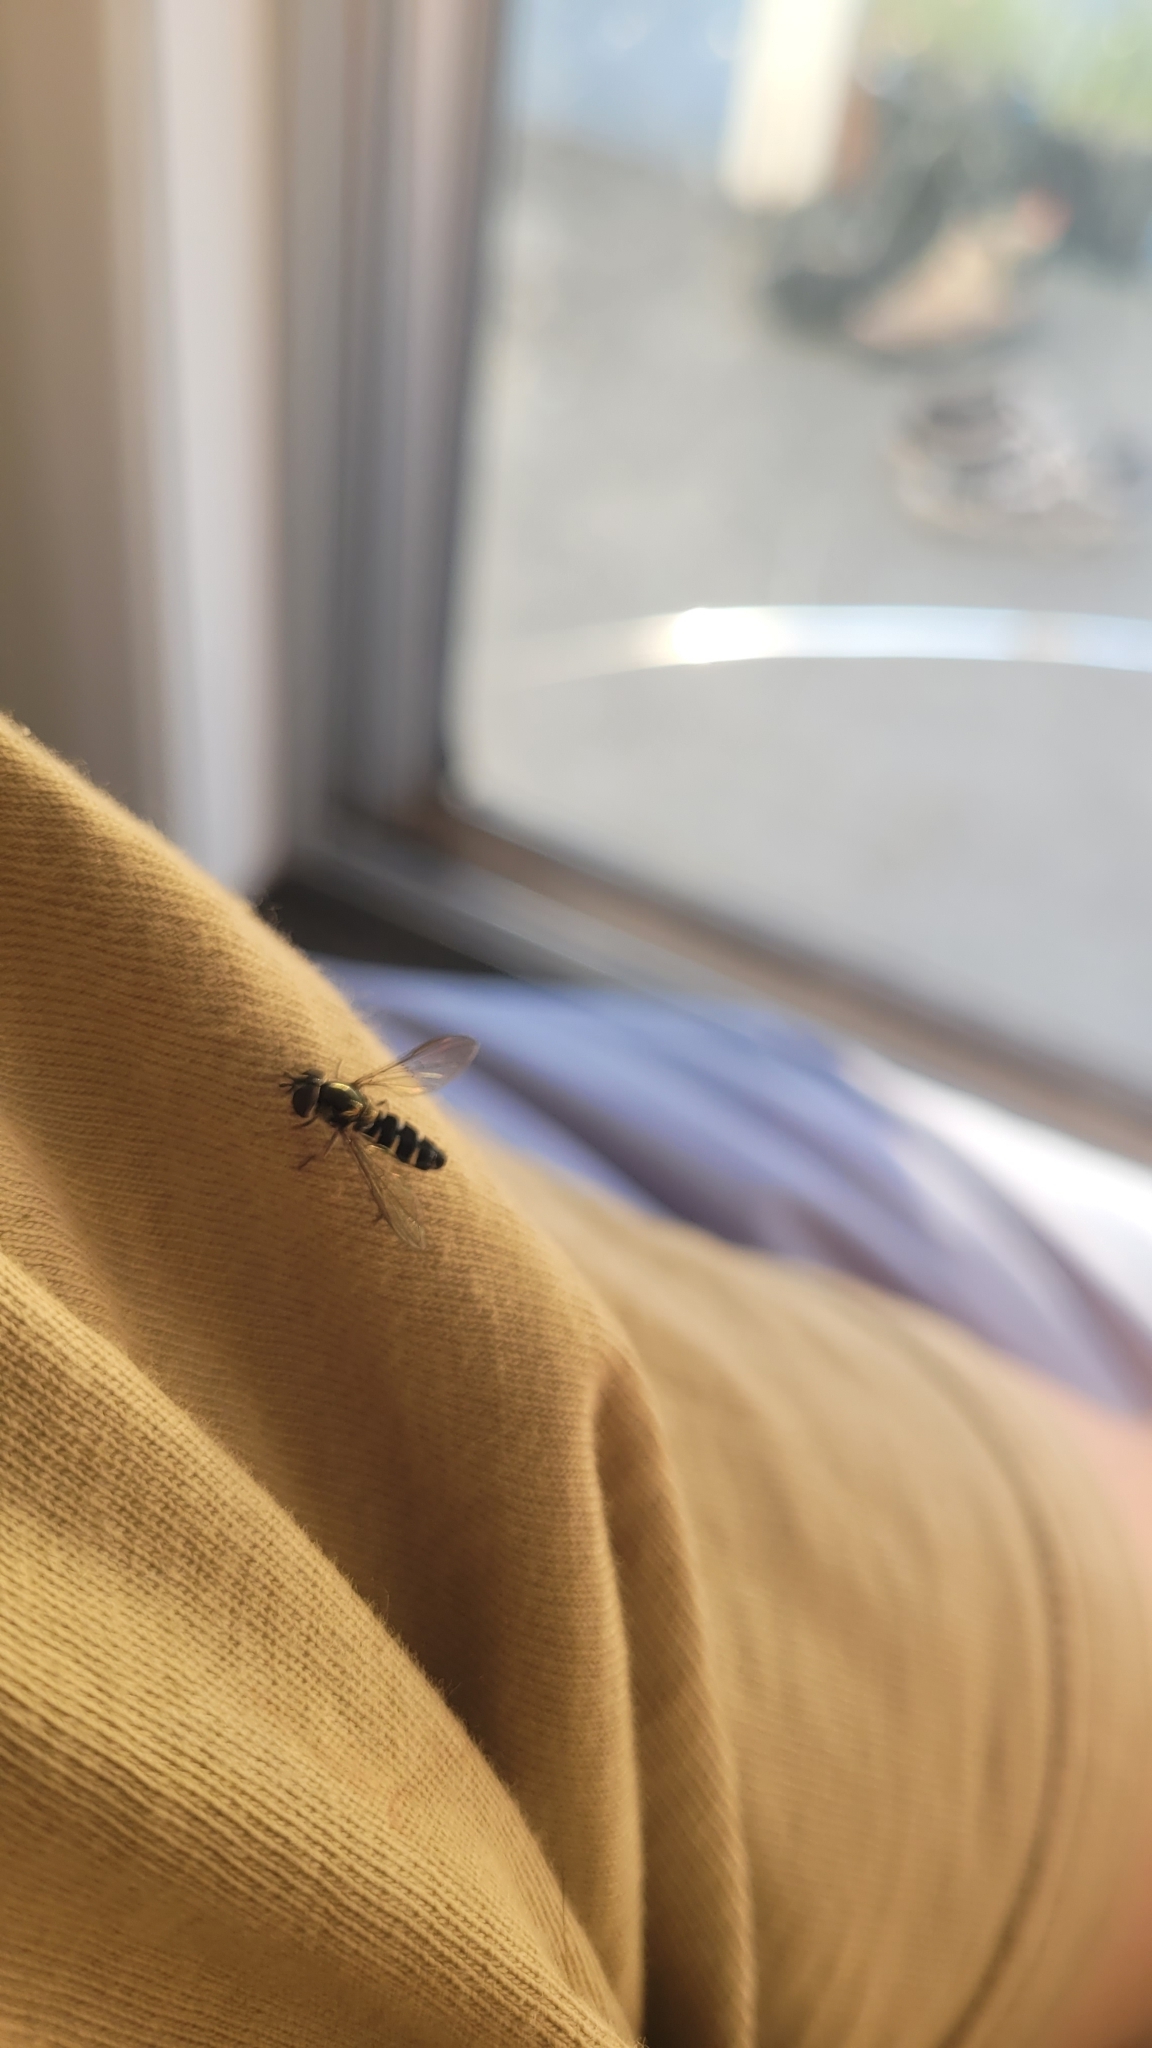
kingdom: Animalia
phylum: Arthropoda
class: Insecta
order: Diptera
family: Syrphidae
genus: Melangyna
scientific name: Melangyna novaezelandiae
